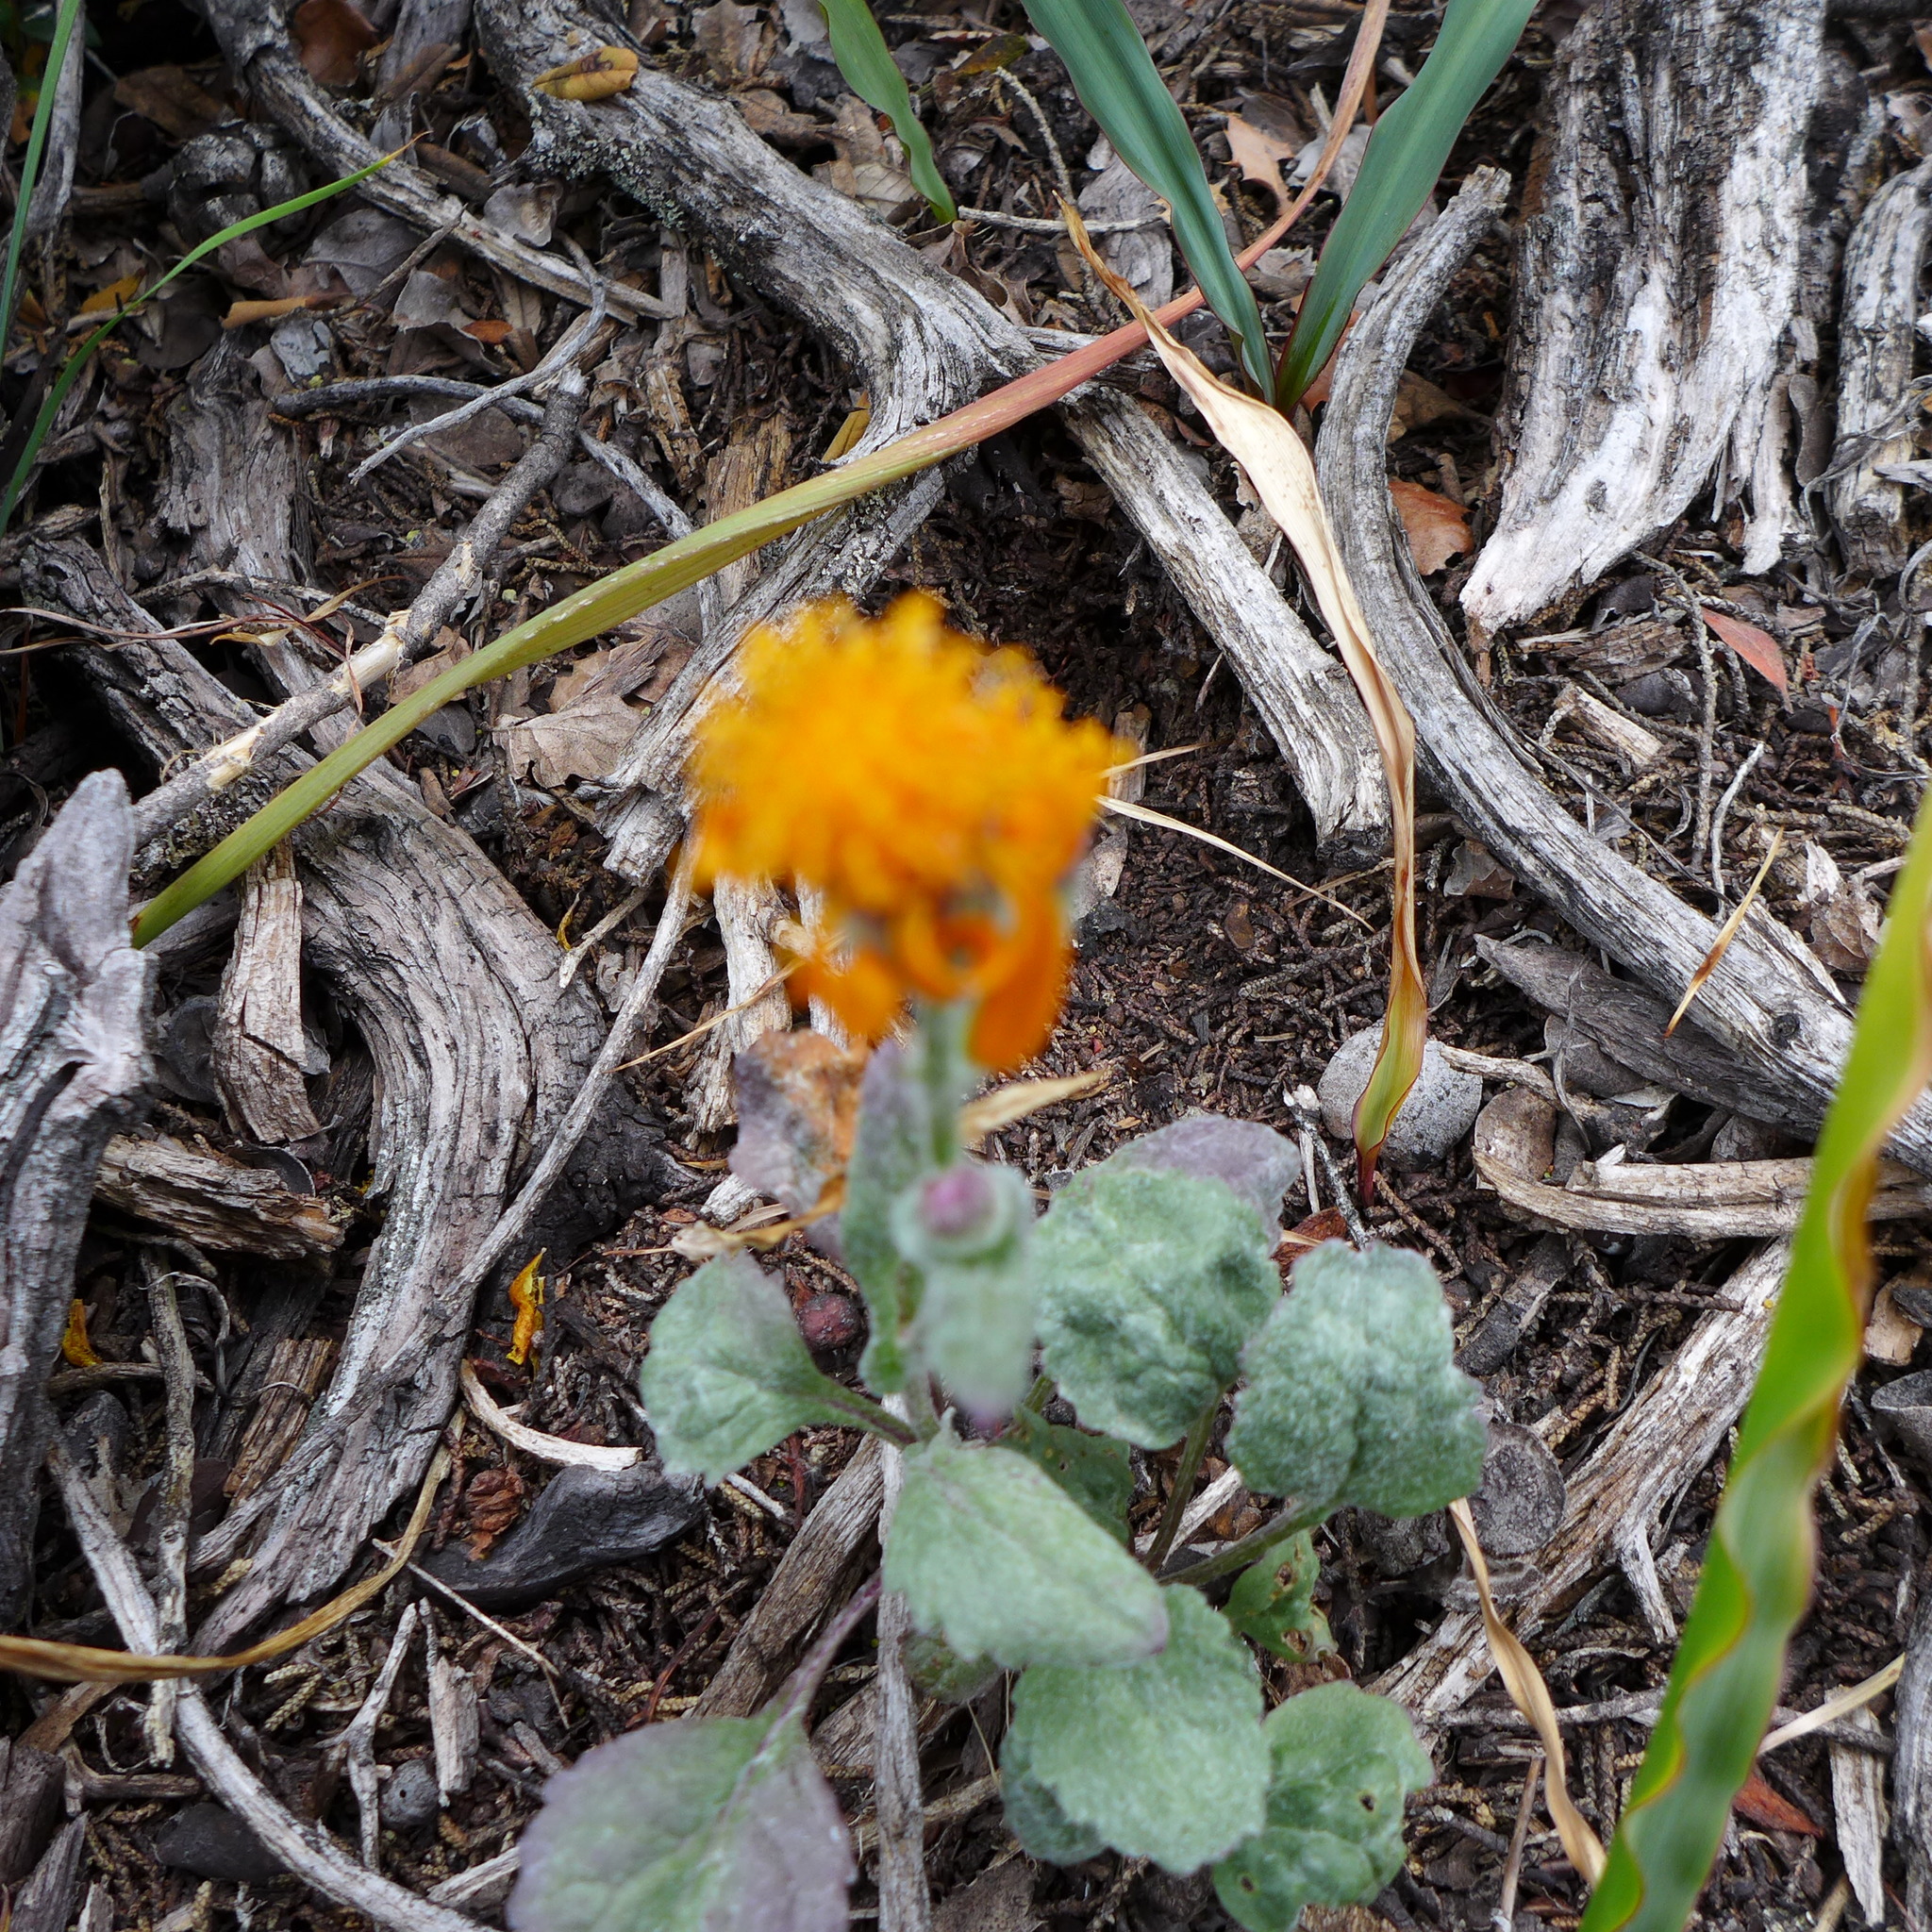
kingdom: Plantae
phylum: Tracheophyta
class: Magnoliopsida
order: Asterales
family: Asteraceae
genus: Packera
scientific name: Packera greenei
